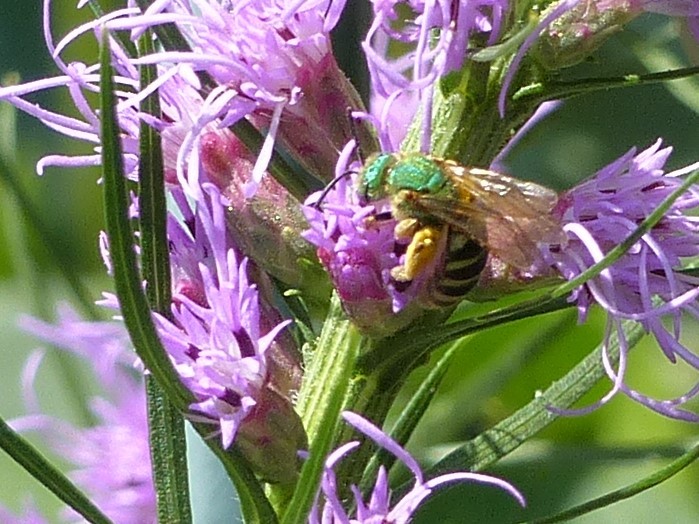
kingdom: Animalia
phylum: Arthropoda
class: Insecta
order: Hymenoptera
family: Halictidae
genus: Agapostemon
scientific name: Agapostemon virescens
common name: Bicolored striped sweat bee
